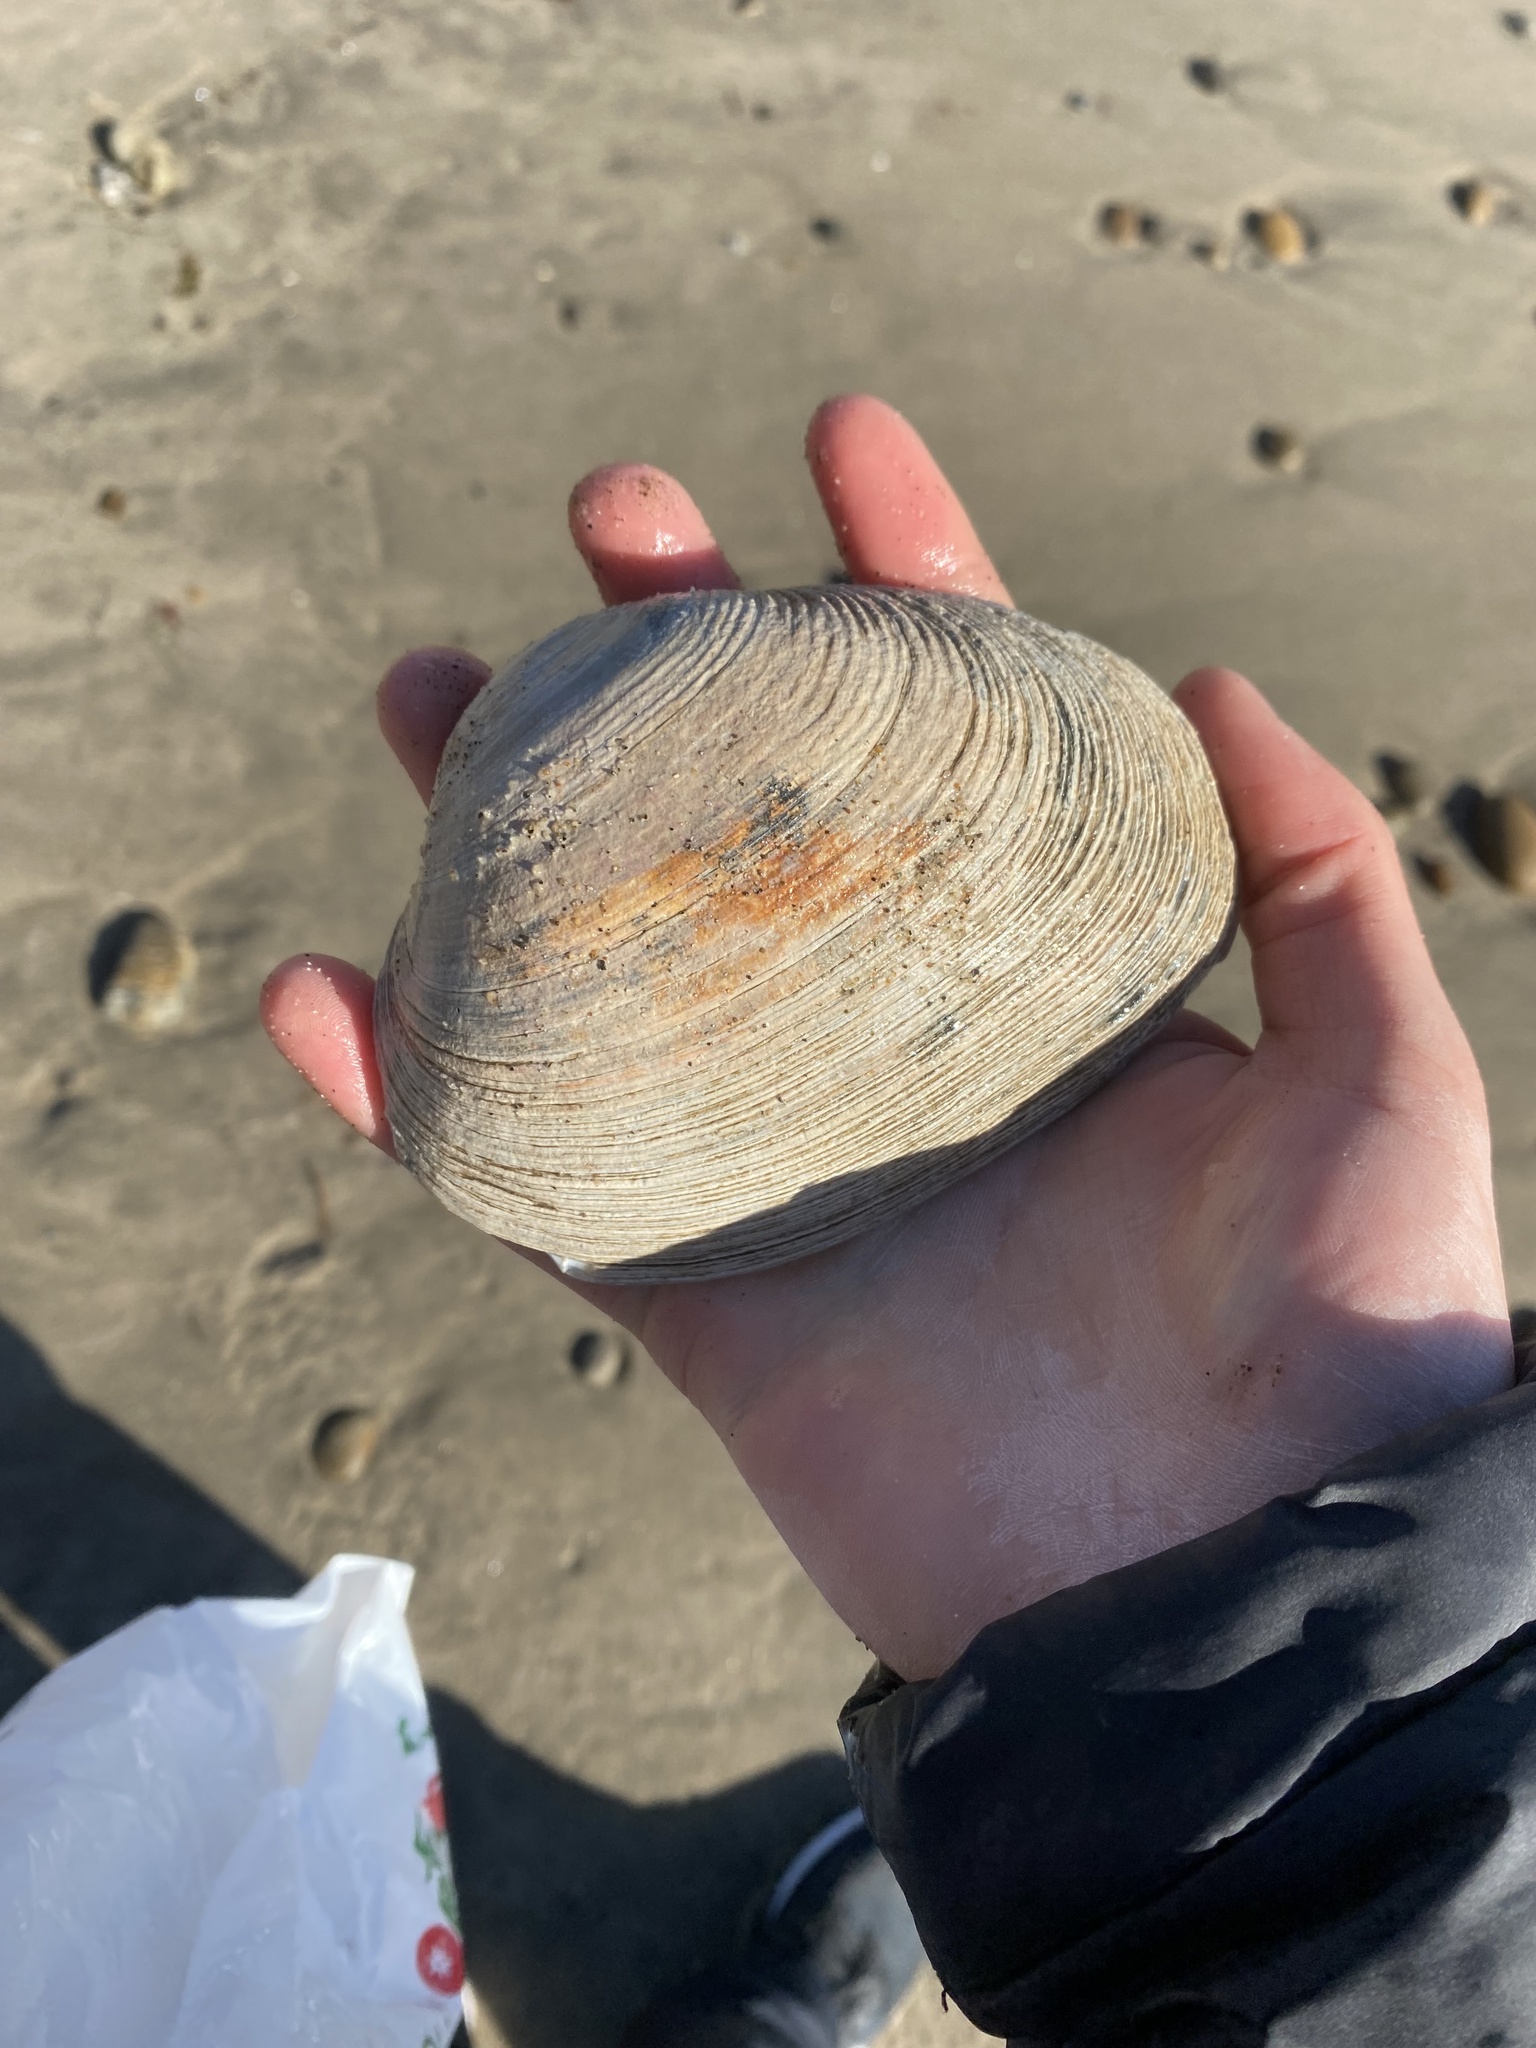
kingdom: Animalia
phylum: Mollusca
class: Bivalvia
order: Venerida
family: Veneridae
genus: Saxidomus
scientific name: Saxidomus nuttalli
